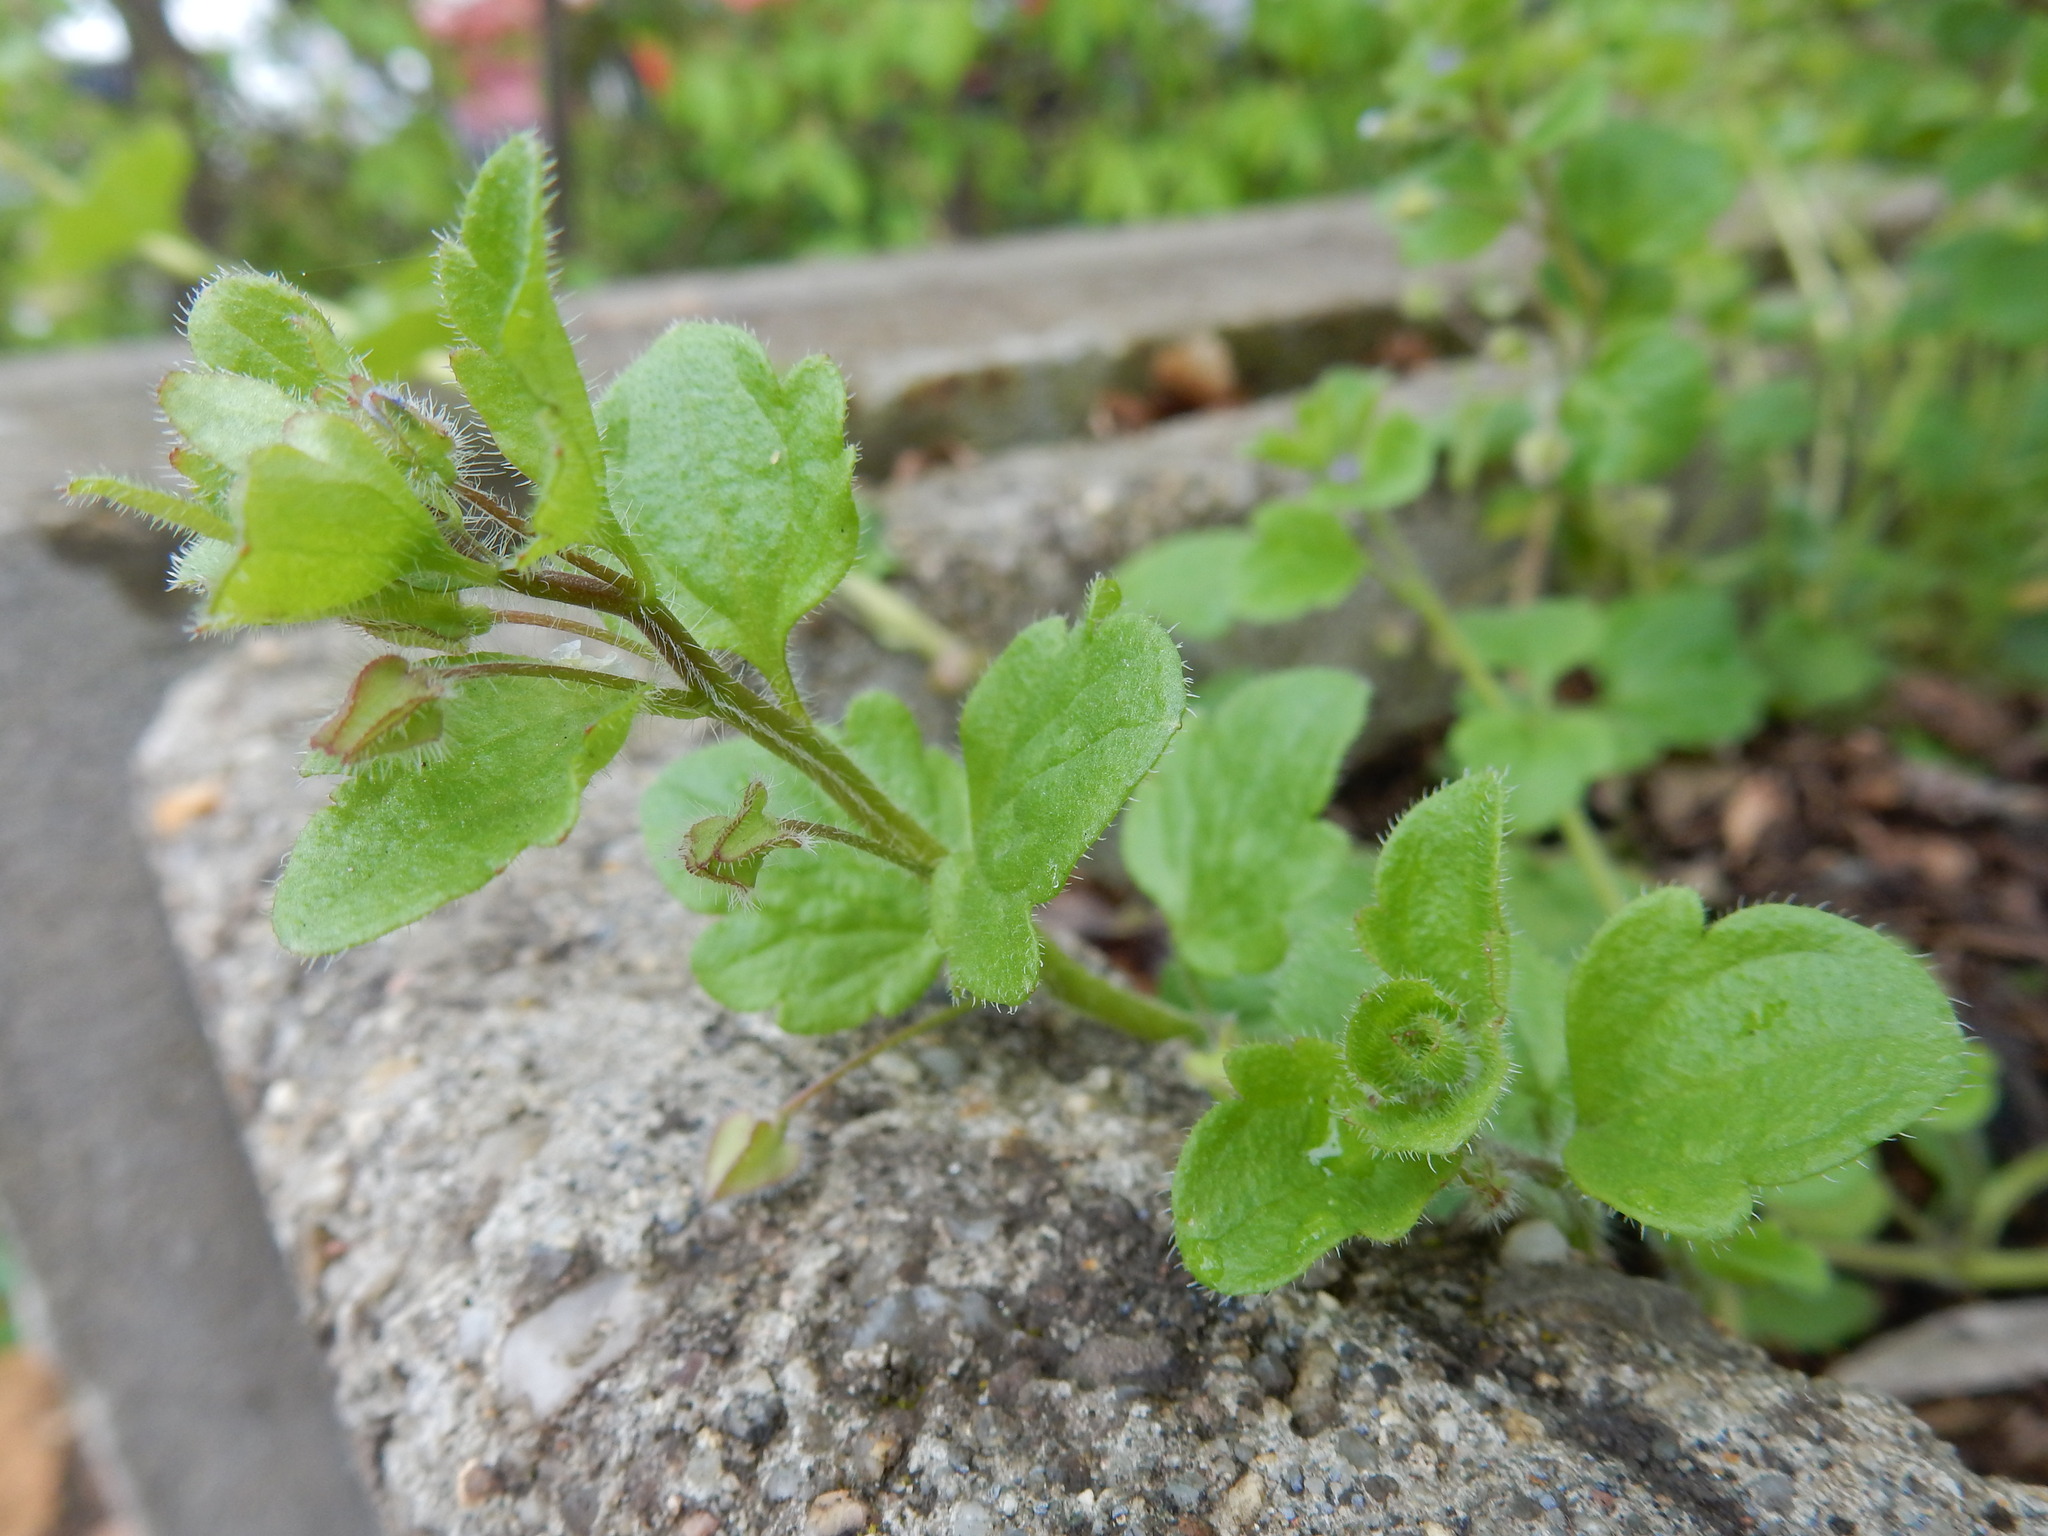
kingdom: Plantae
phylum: Tracheophyta
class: Magnoliopsida
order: Lamiales
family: Plantaginaceae
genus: Veronica
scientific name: Veronica sublobata
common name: False ivy-leaved speedwell
